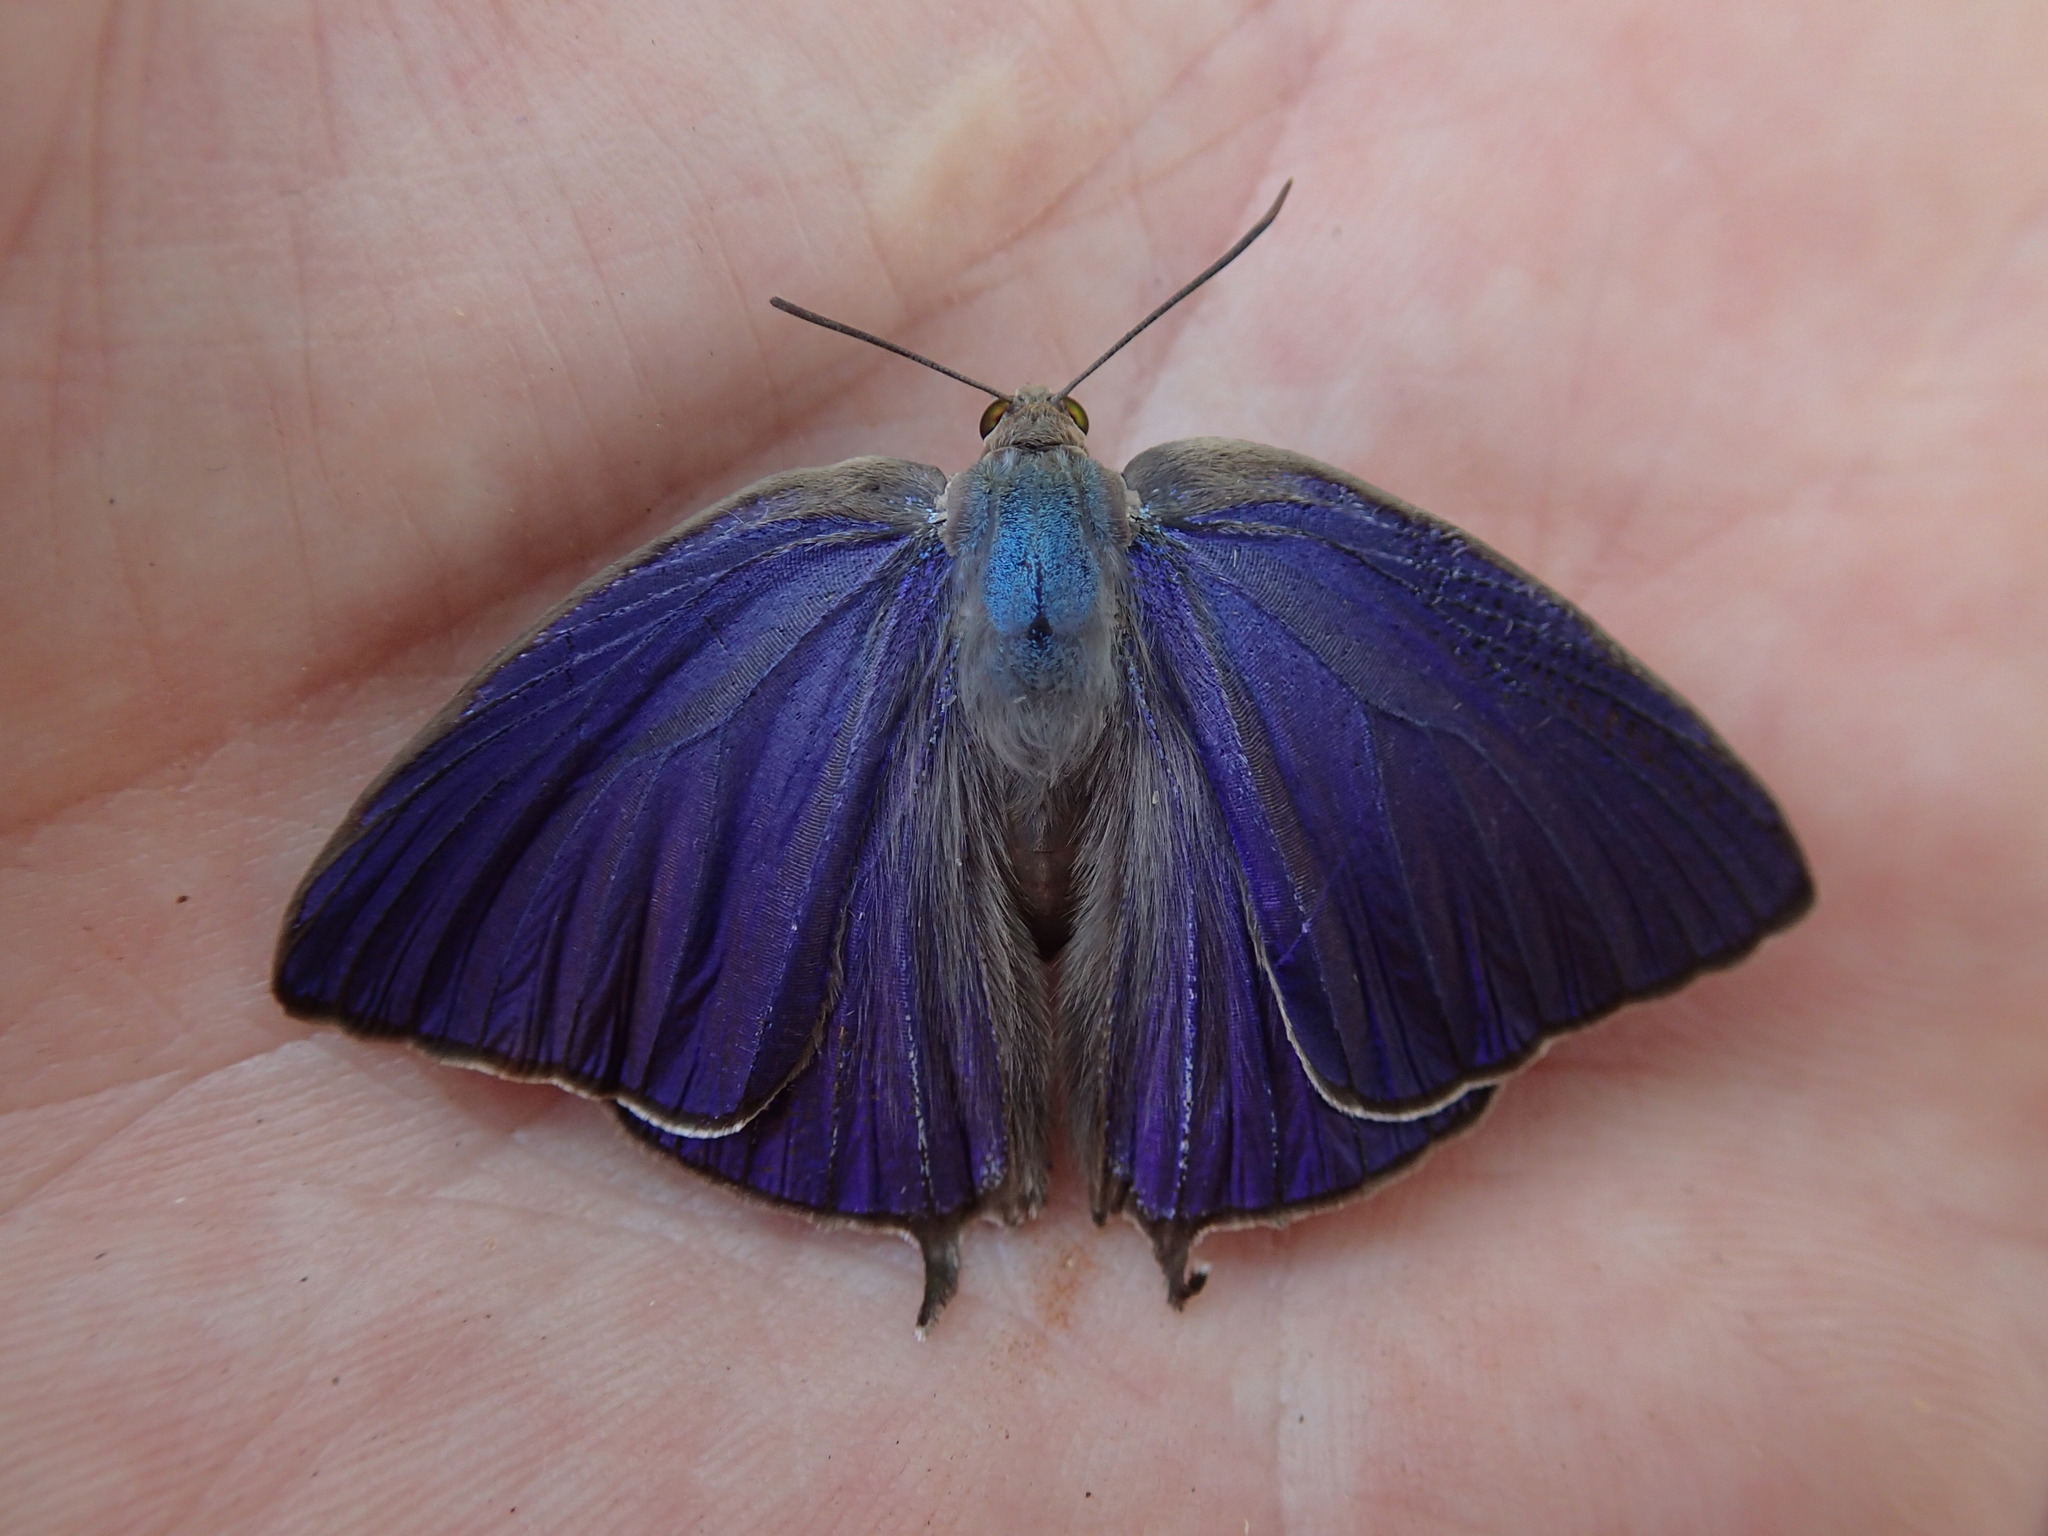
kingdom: Animalia
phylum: Arthropoda
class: Insecta
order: Lepidoptera
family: Lycaenidae
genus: Arhopala
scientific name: Arhopala
